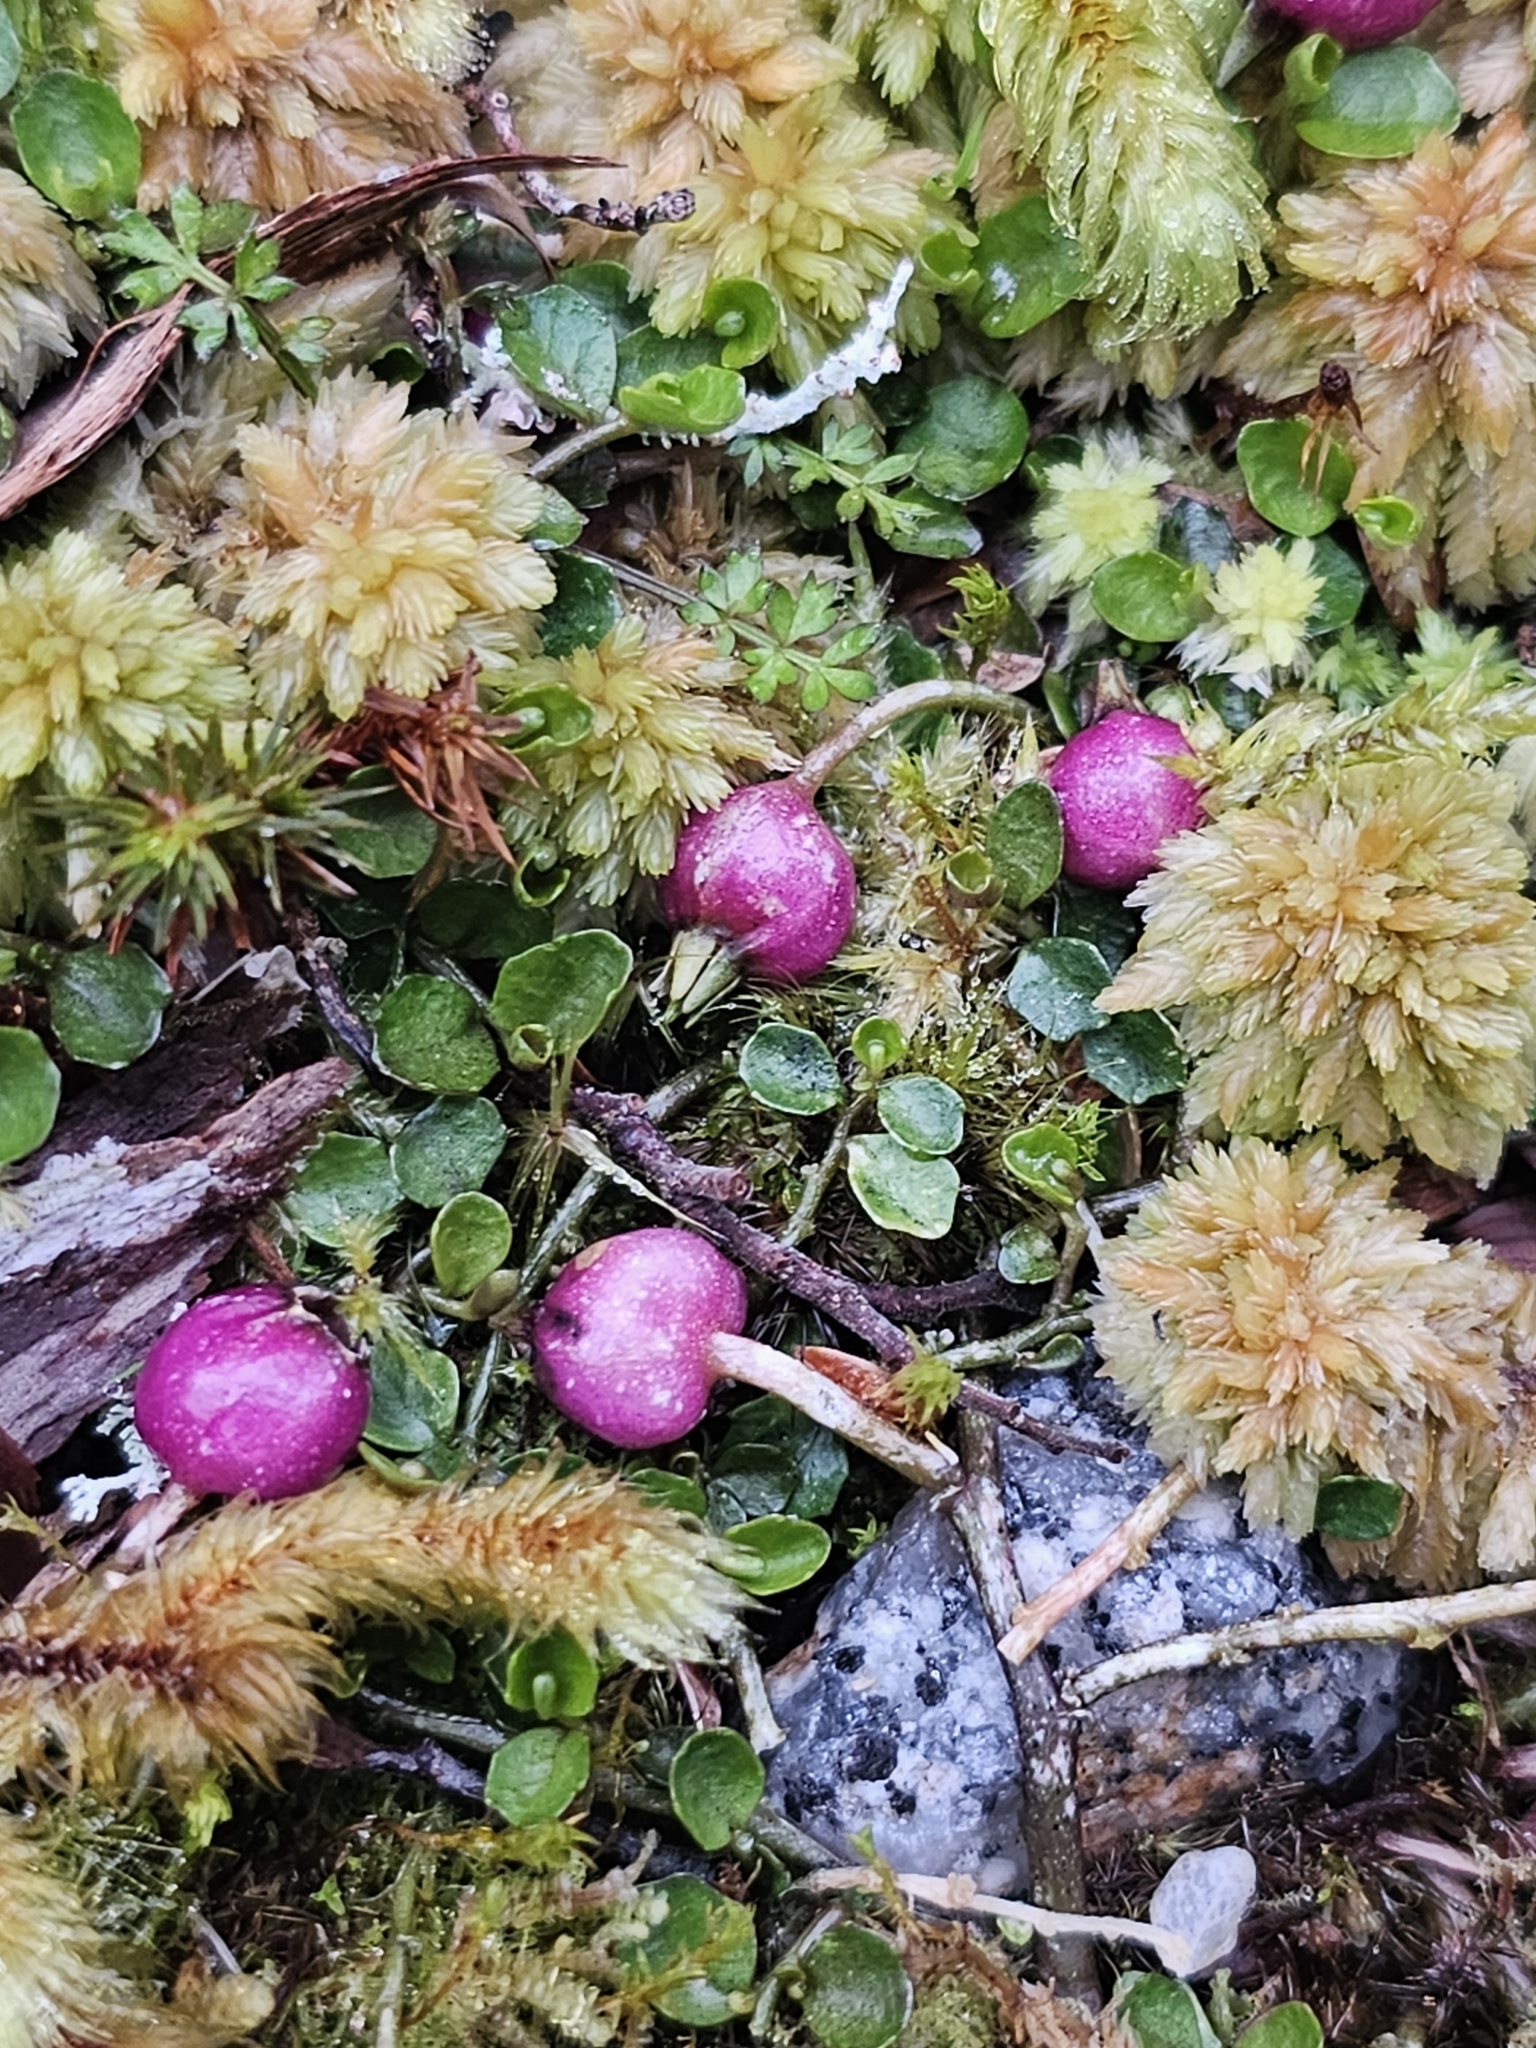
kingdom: Plantae
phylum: Tracheophyta
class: Magnoliopsida
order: Asterales
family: Campanulaceae
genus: Lobelia
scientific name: Lobelia angulata
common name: Lawn lobelia
